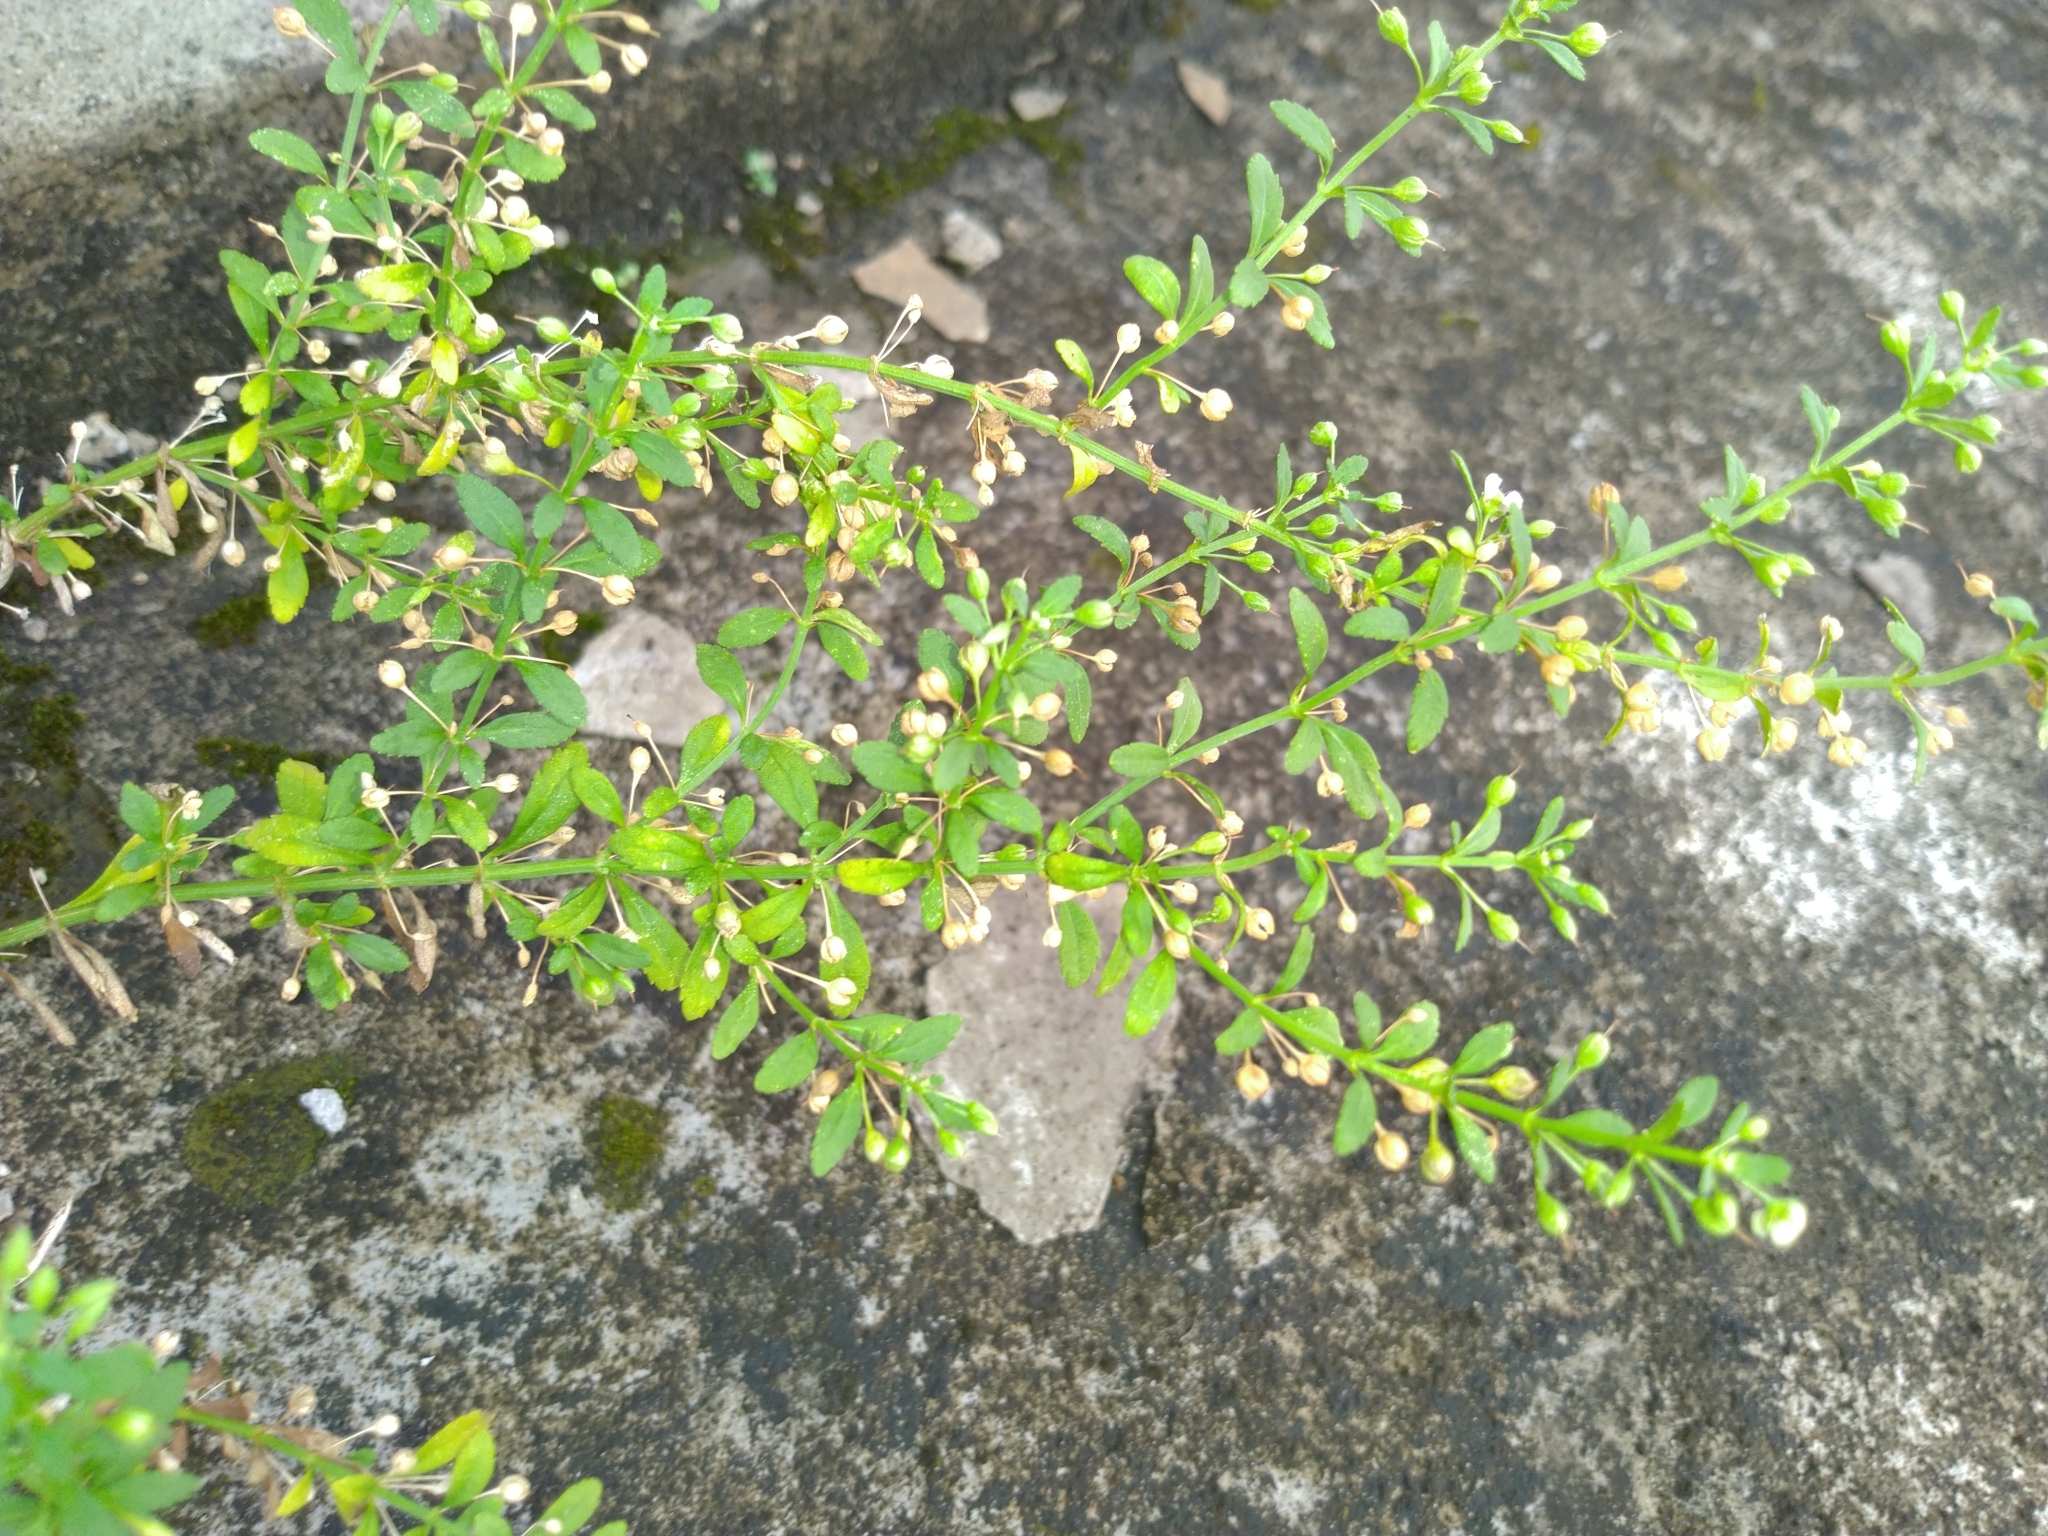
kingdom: Plantae
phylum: Tracheophyta
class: Magnoliopsida
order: Lamiales
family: Plantaginaceae
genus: Scoparia
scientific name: Scoparia dulcis
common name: Scoparia-weed
